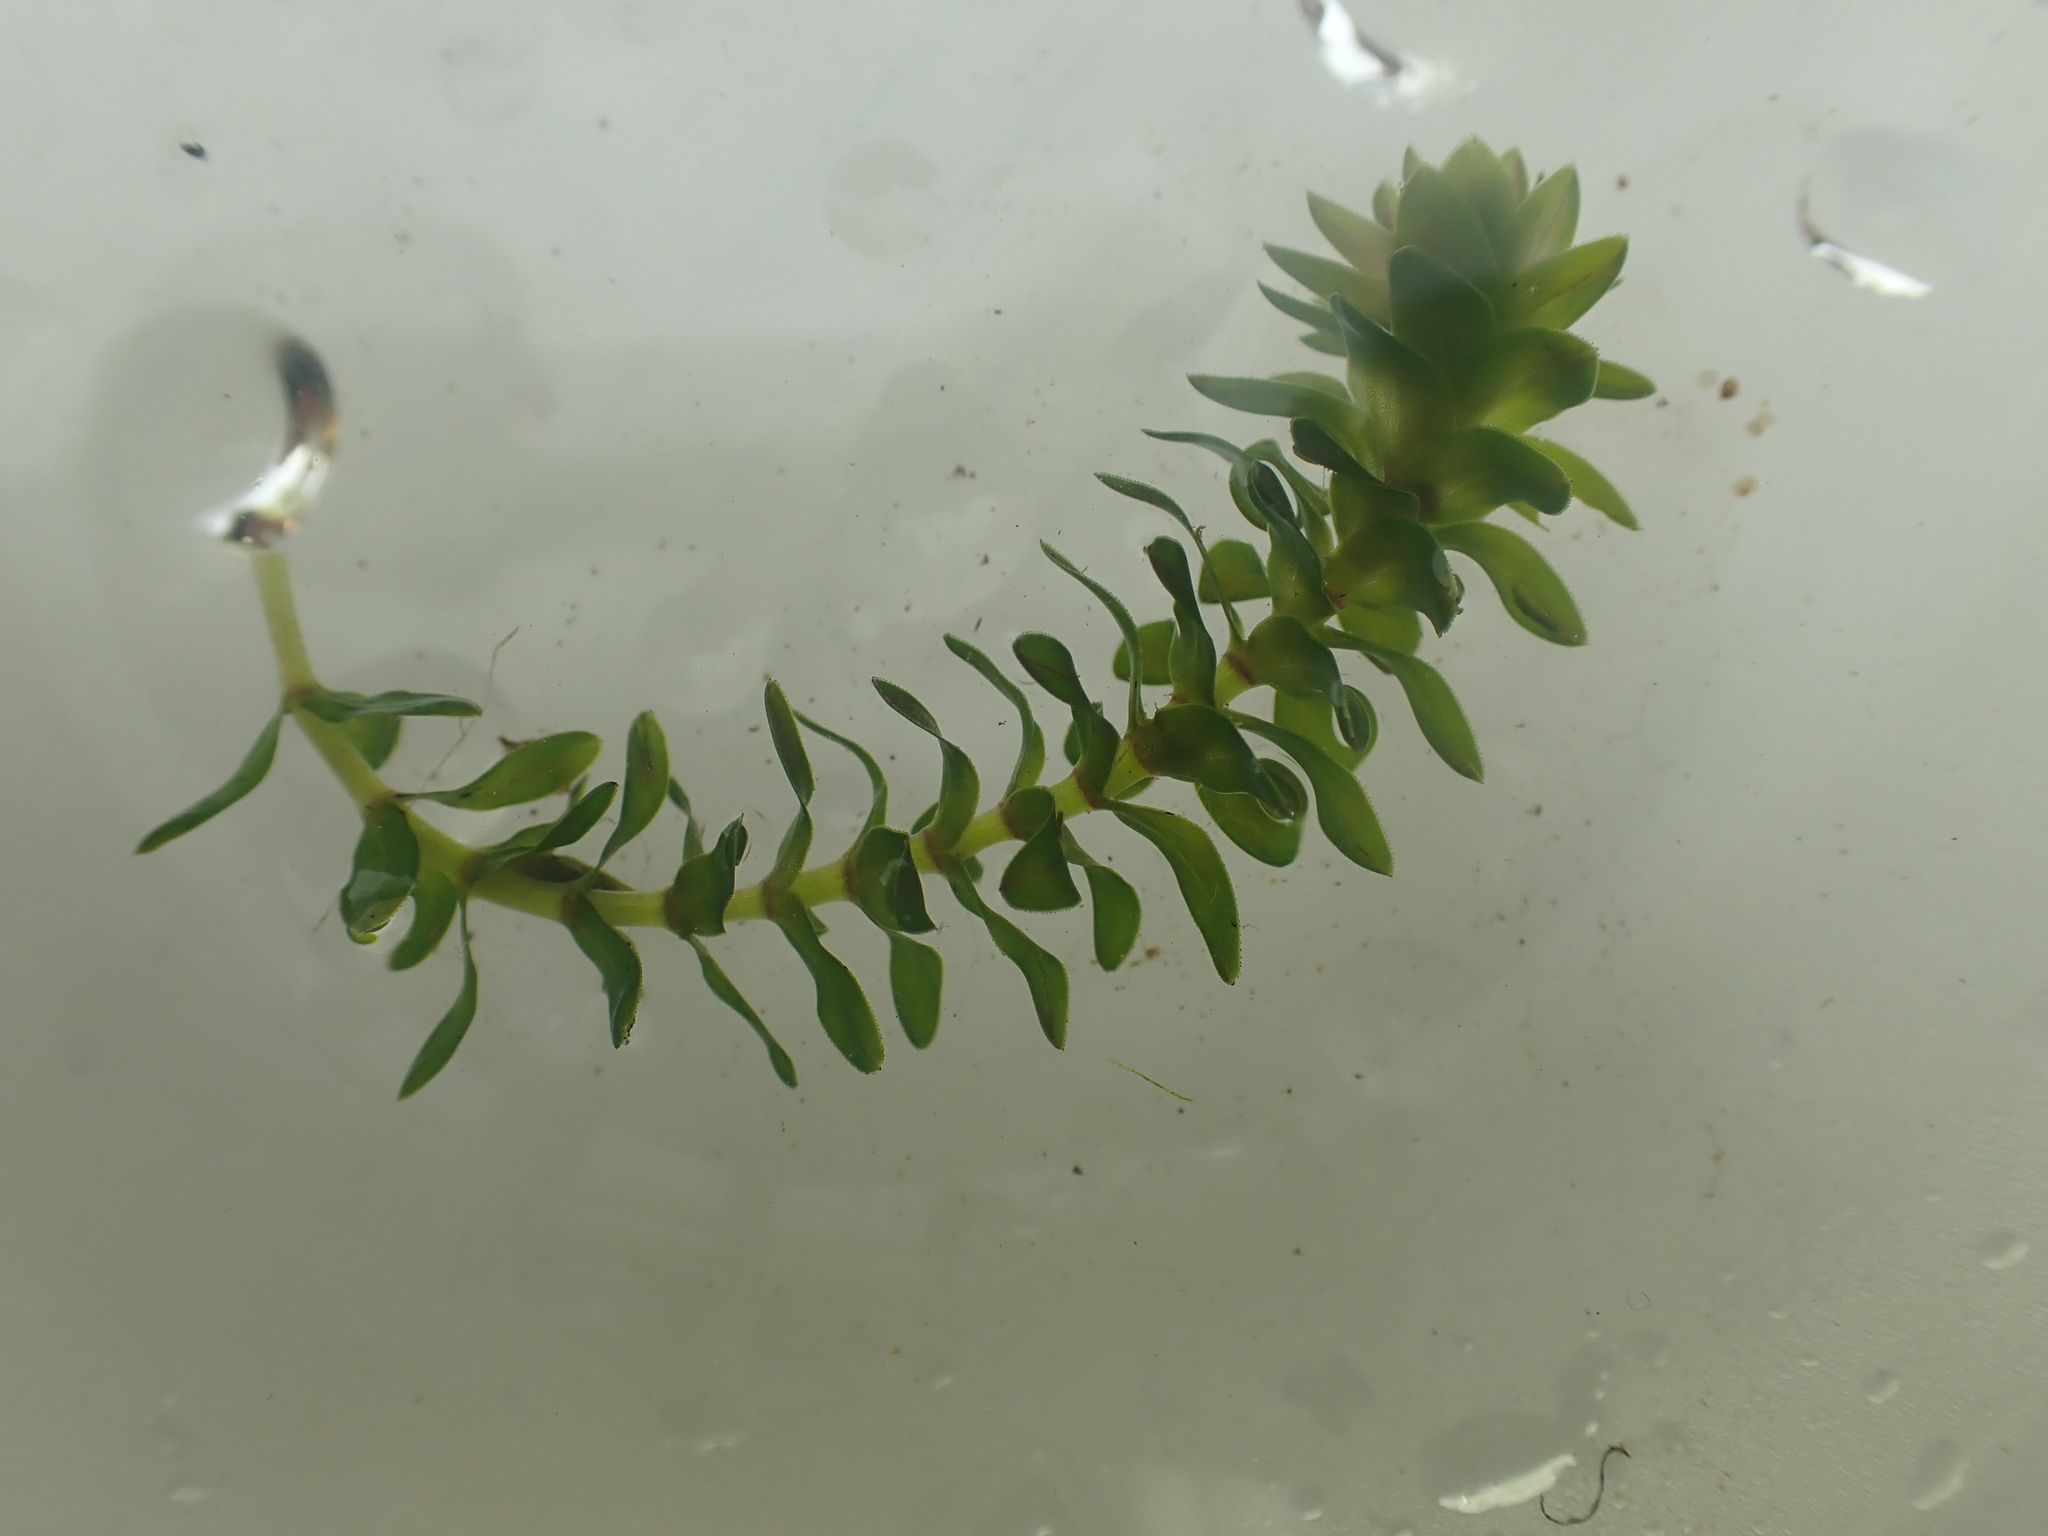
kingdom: Plantae
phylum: Tracheophyta
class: Liliopsida
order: Alismatales
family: Hydrocharitaceae
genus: Elodea
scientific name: Elodea canadensis
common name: Canadian waterweed
